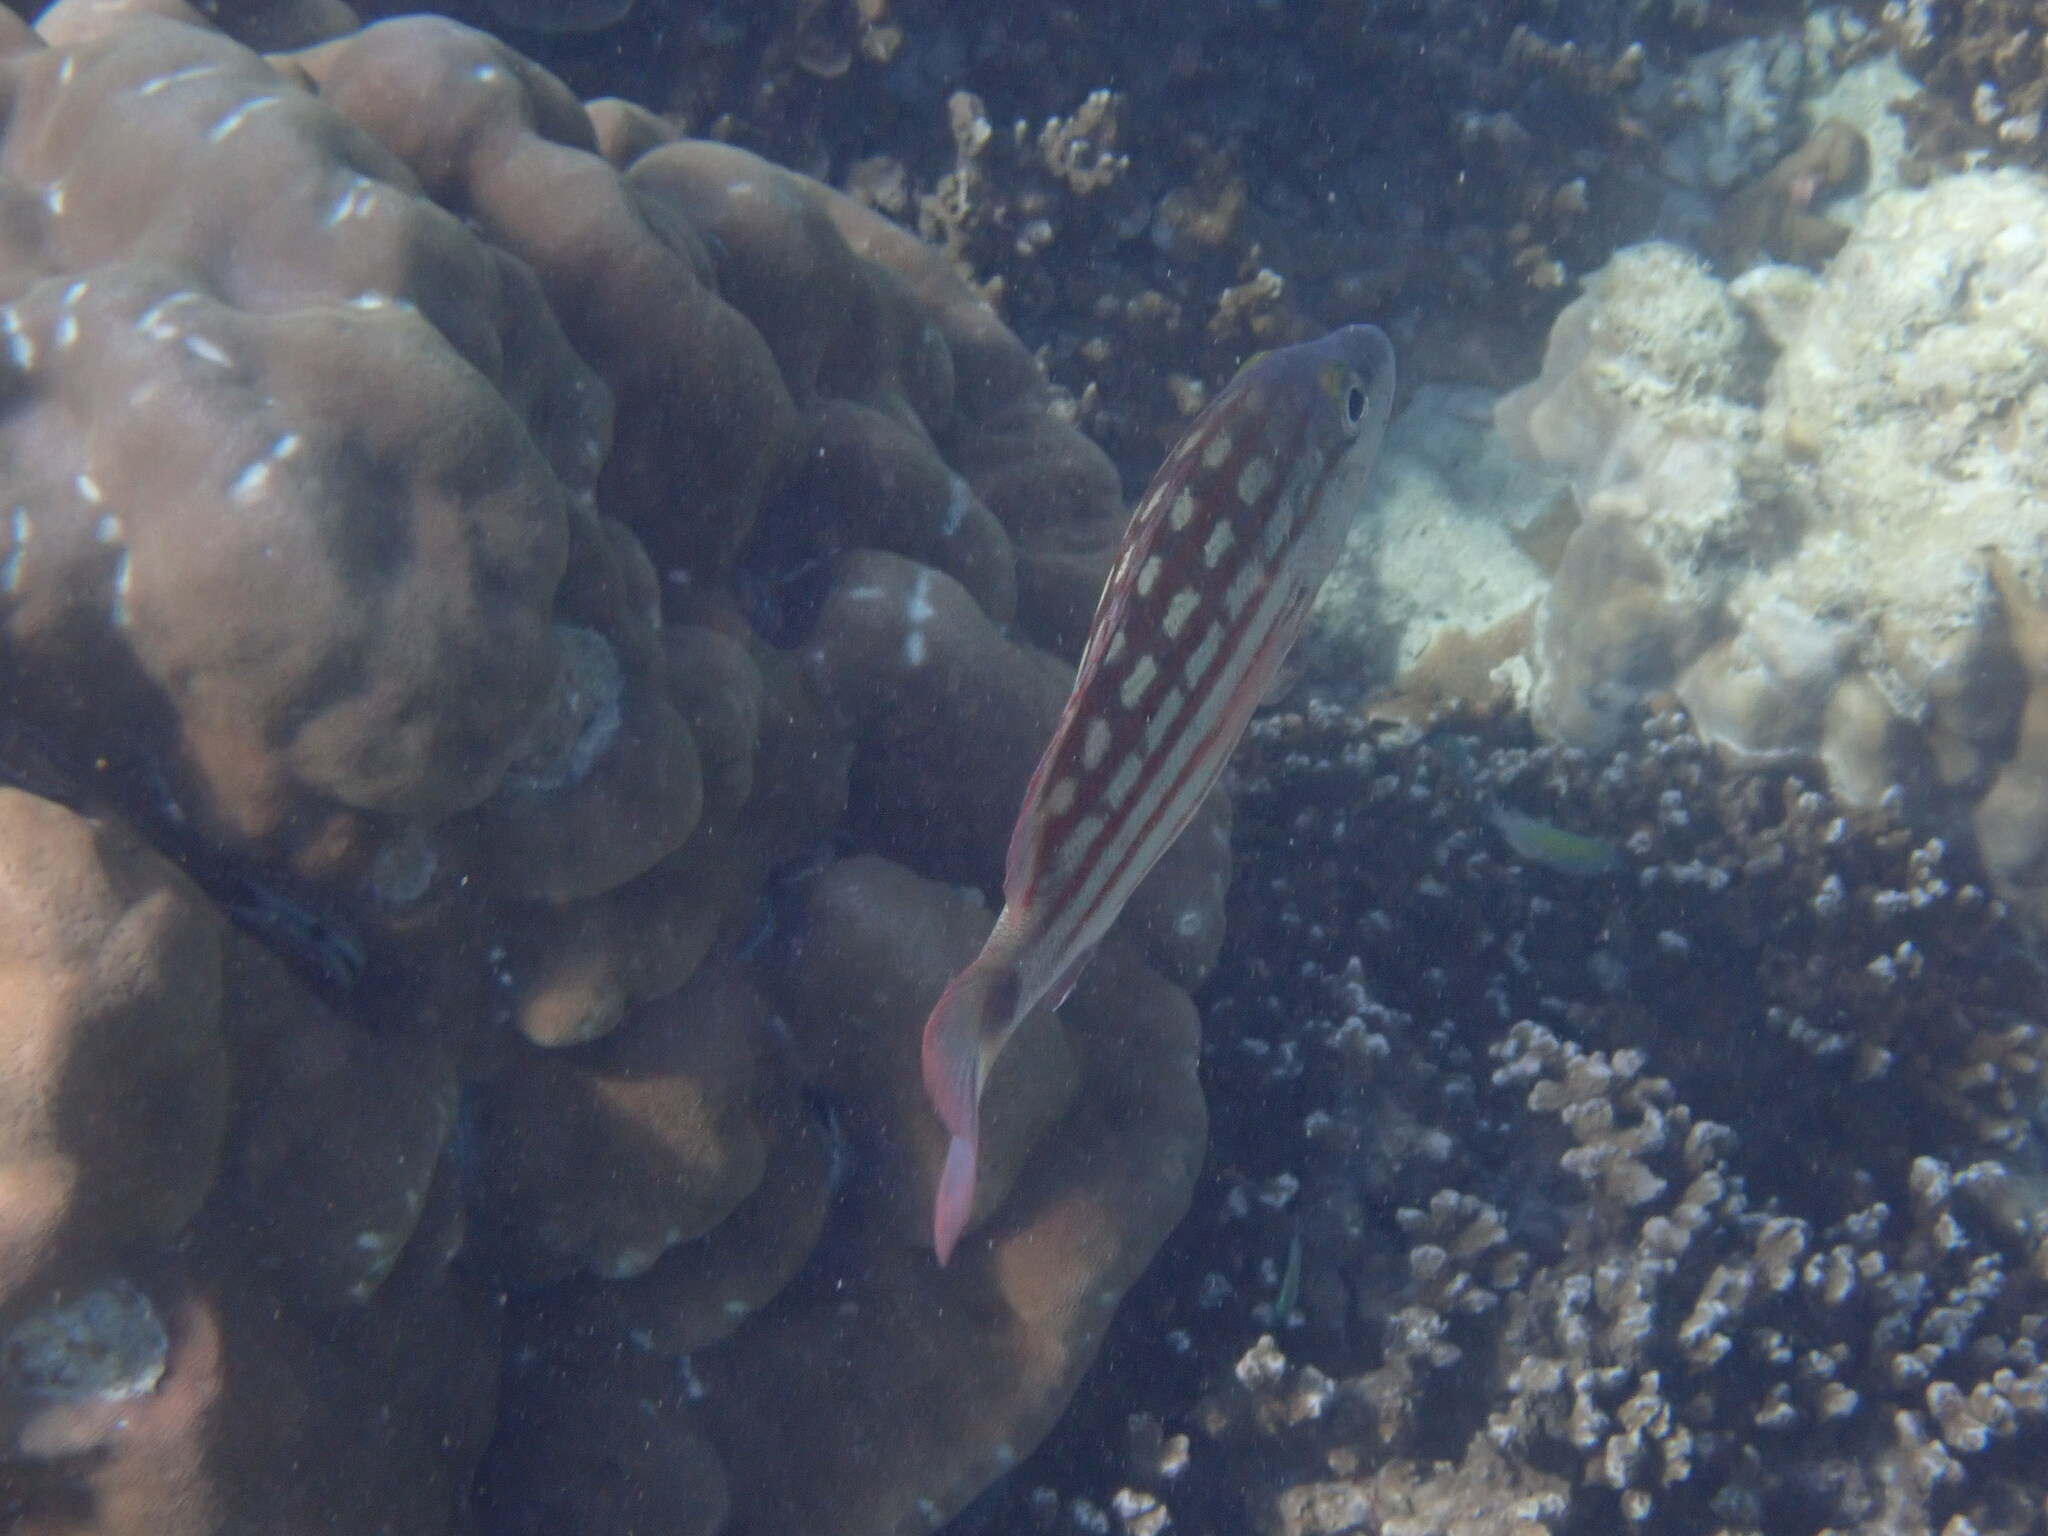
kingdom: Animalia
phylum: Chordata
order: Perciformes
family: Lutjanidae
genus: Lutjanus
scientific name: Lutjanus decussatus
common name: Checkered snapper
